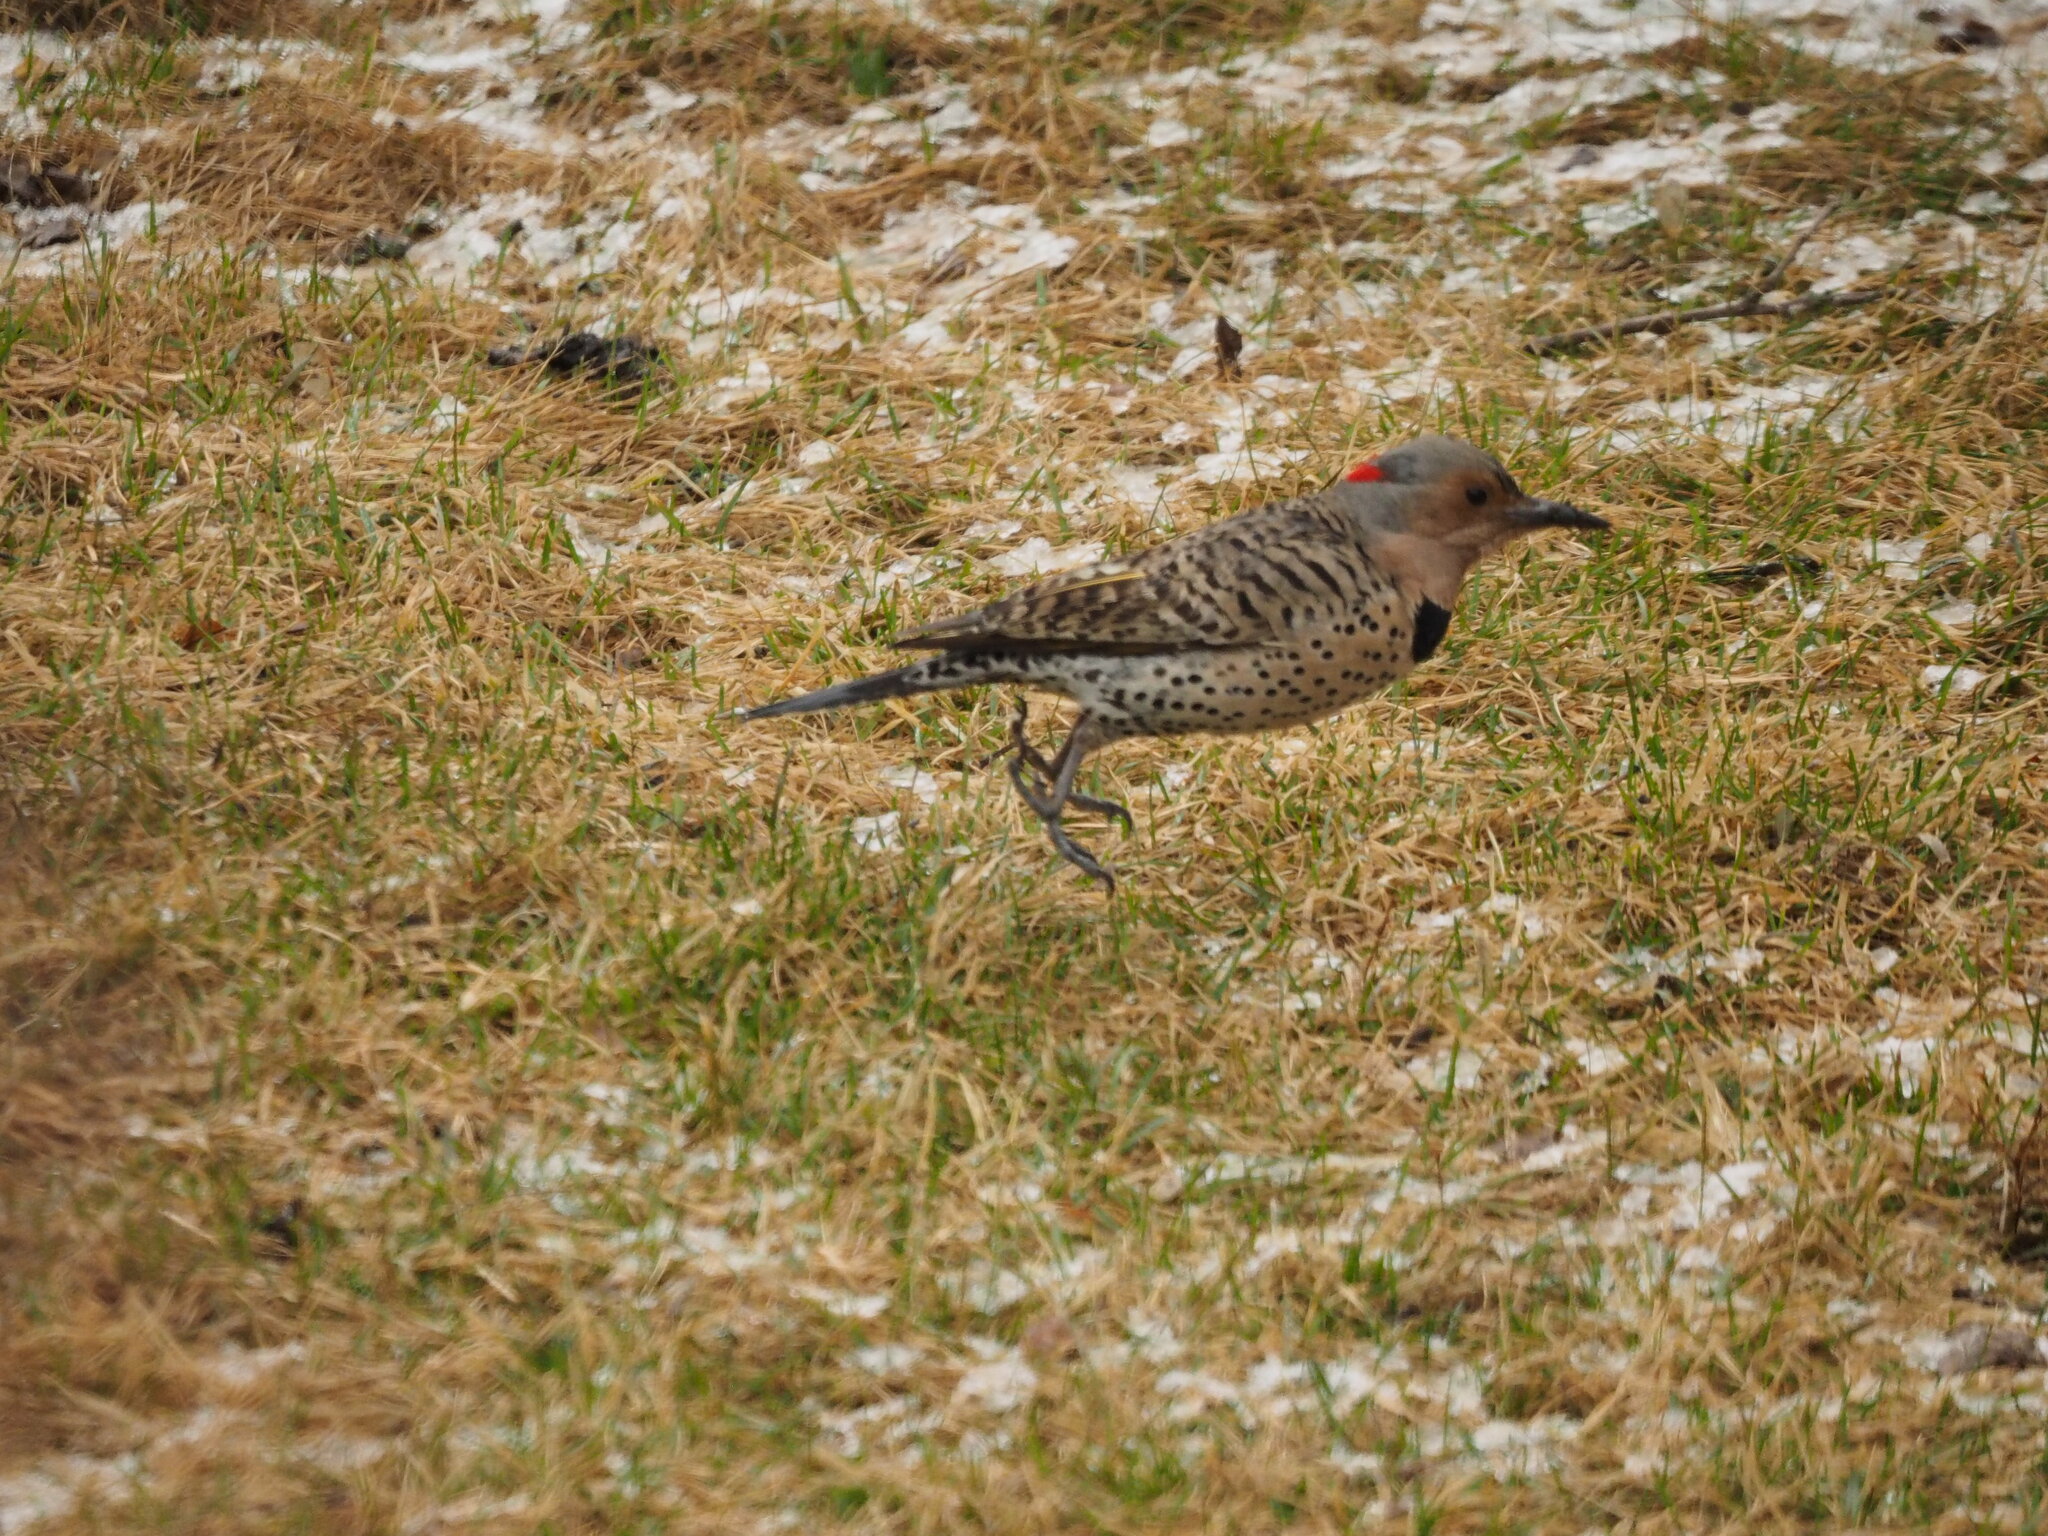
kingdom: Animalia
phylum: Chordata
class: Aves
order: Piciformes
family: Picidae
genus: Colaptes
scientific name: Colaptes auratus
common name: Northern flicker
